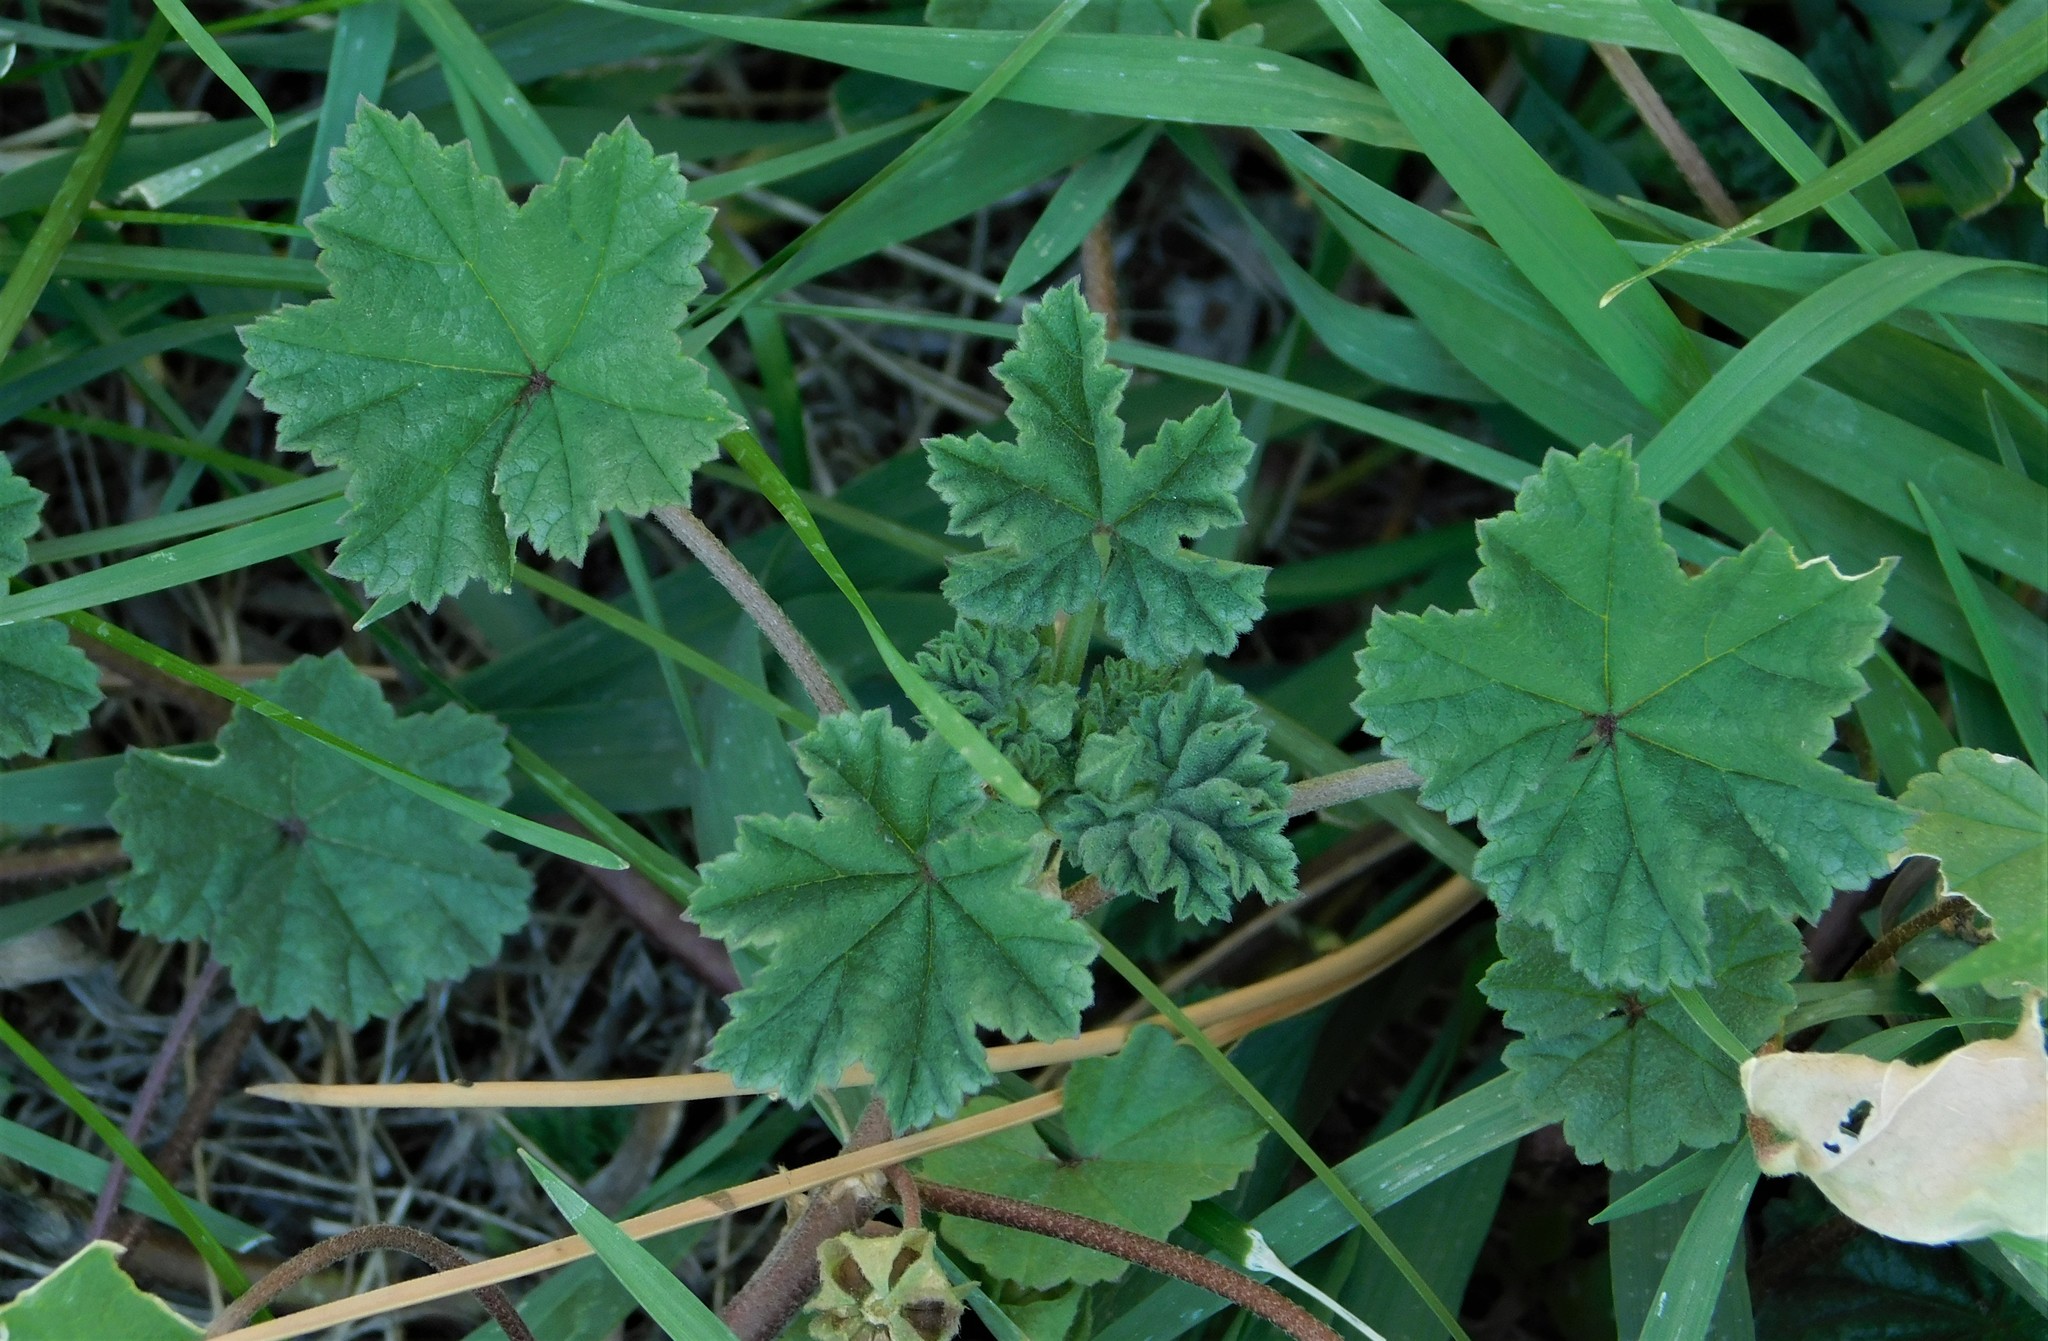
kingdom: Plantae
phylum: Tracheophyta
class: Magnoliopsida
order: Malvales
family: Malvaceae
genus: Malva
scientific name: Malva neglecta
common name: Common mallow
